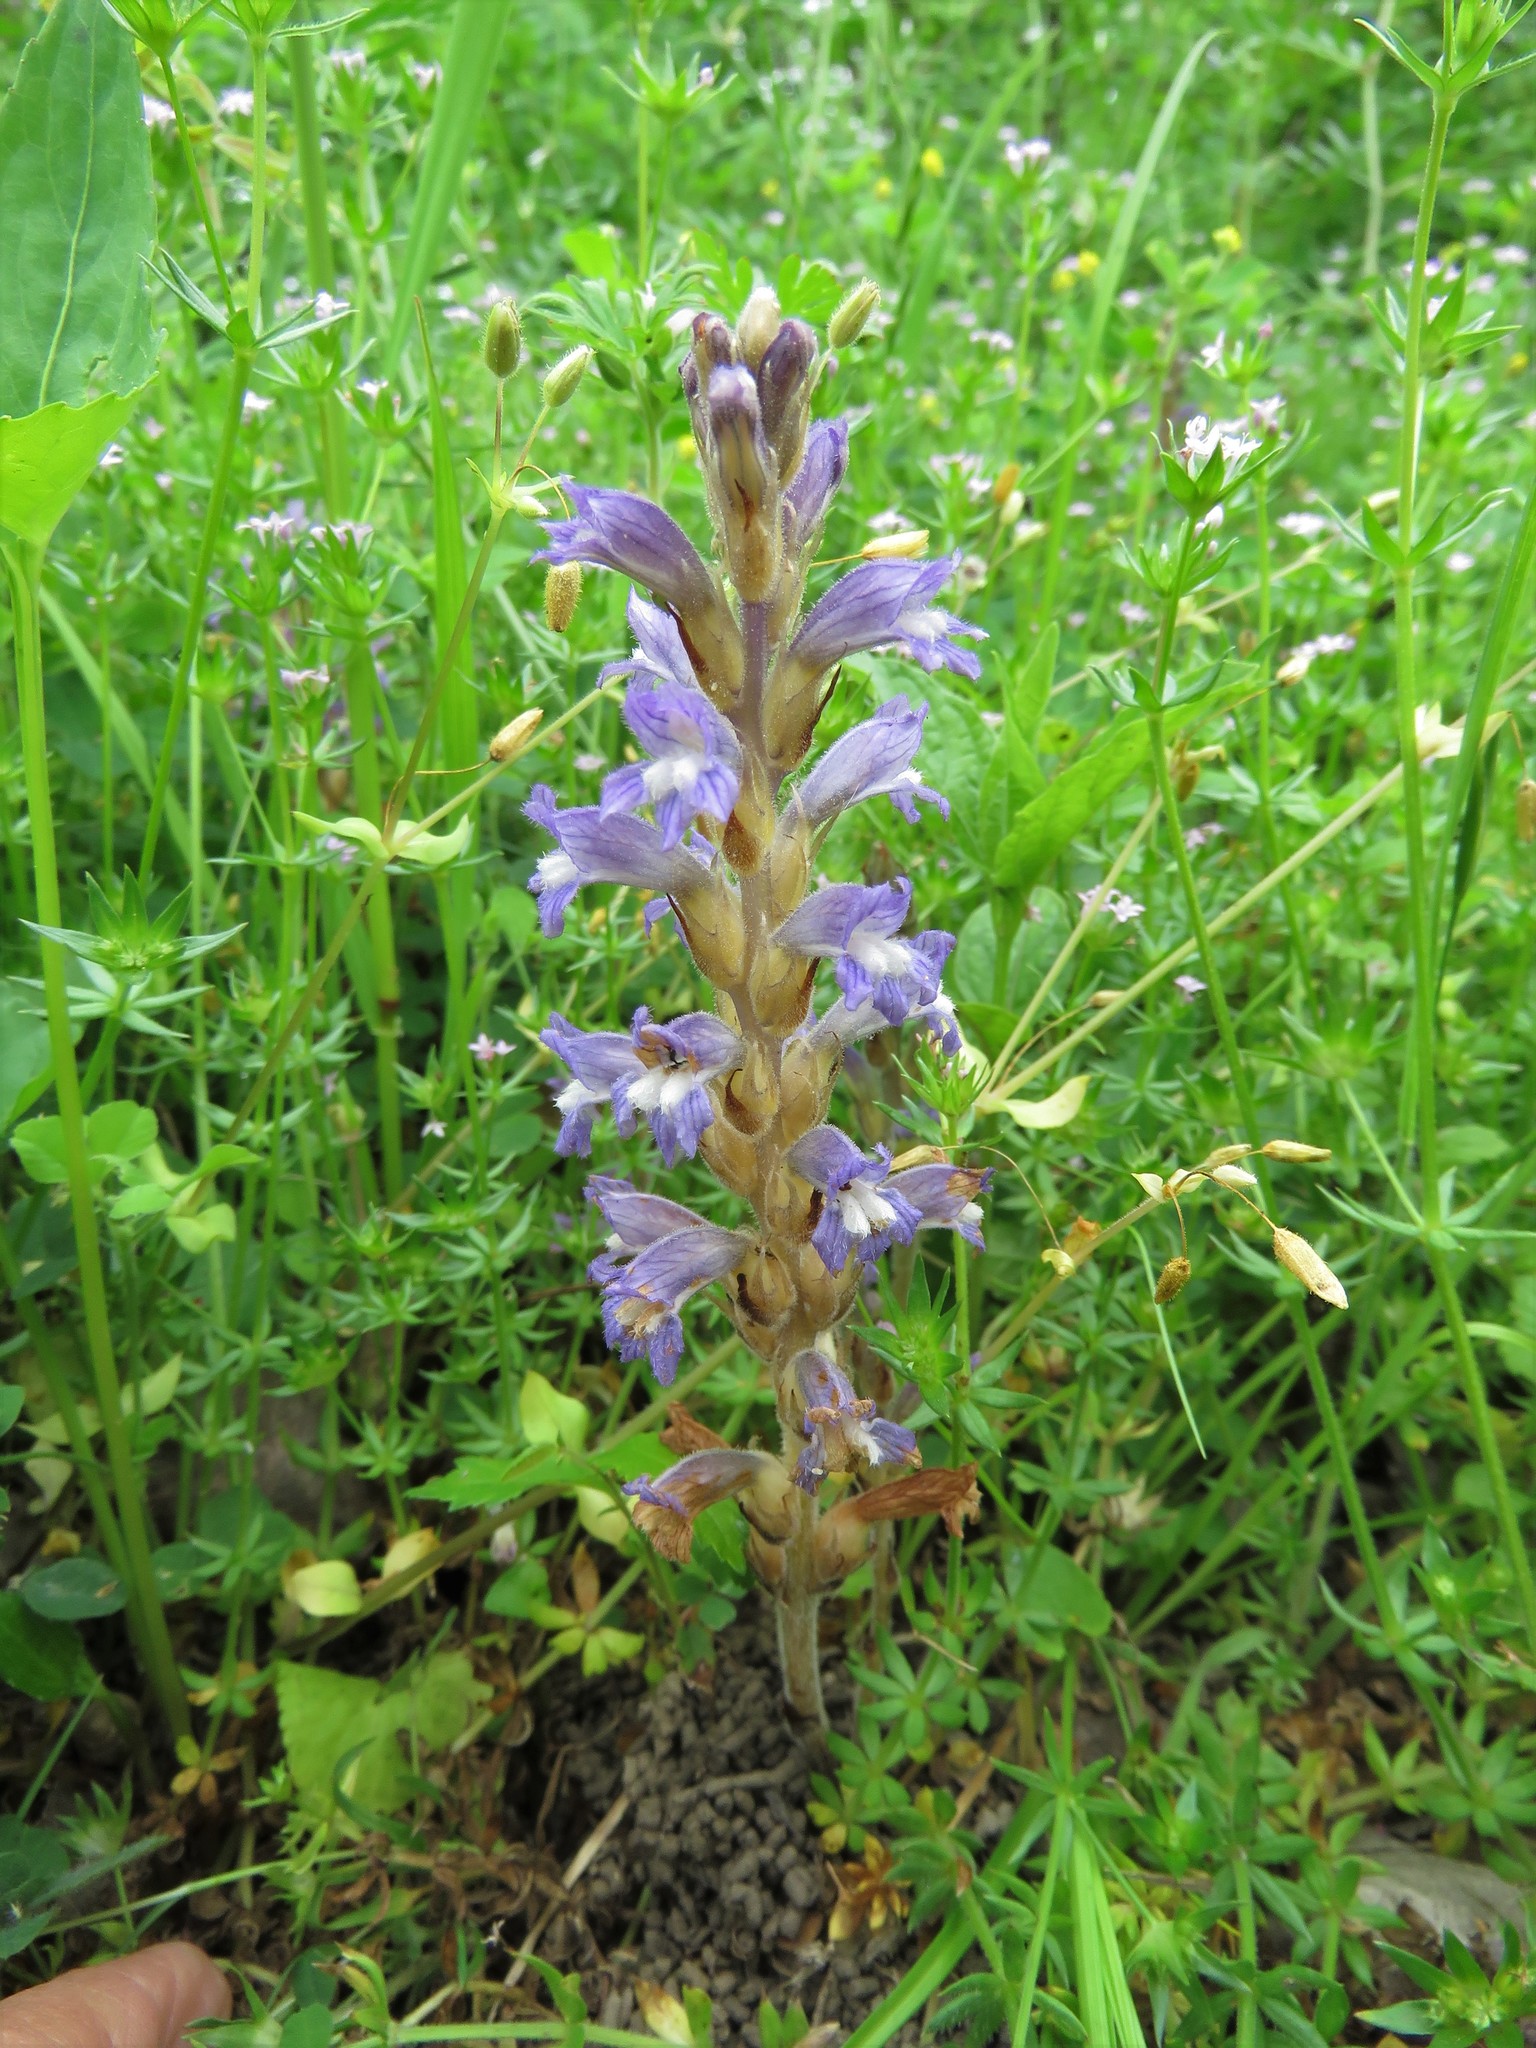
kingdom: Plantae
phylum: Tracheophyta
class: Magnoliopsida
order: Lamiales
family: Orobanchaceae
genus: Phelipanche
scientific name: Phelipanche mutelii
